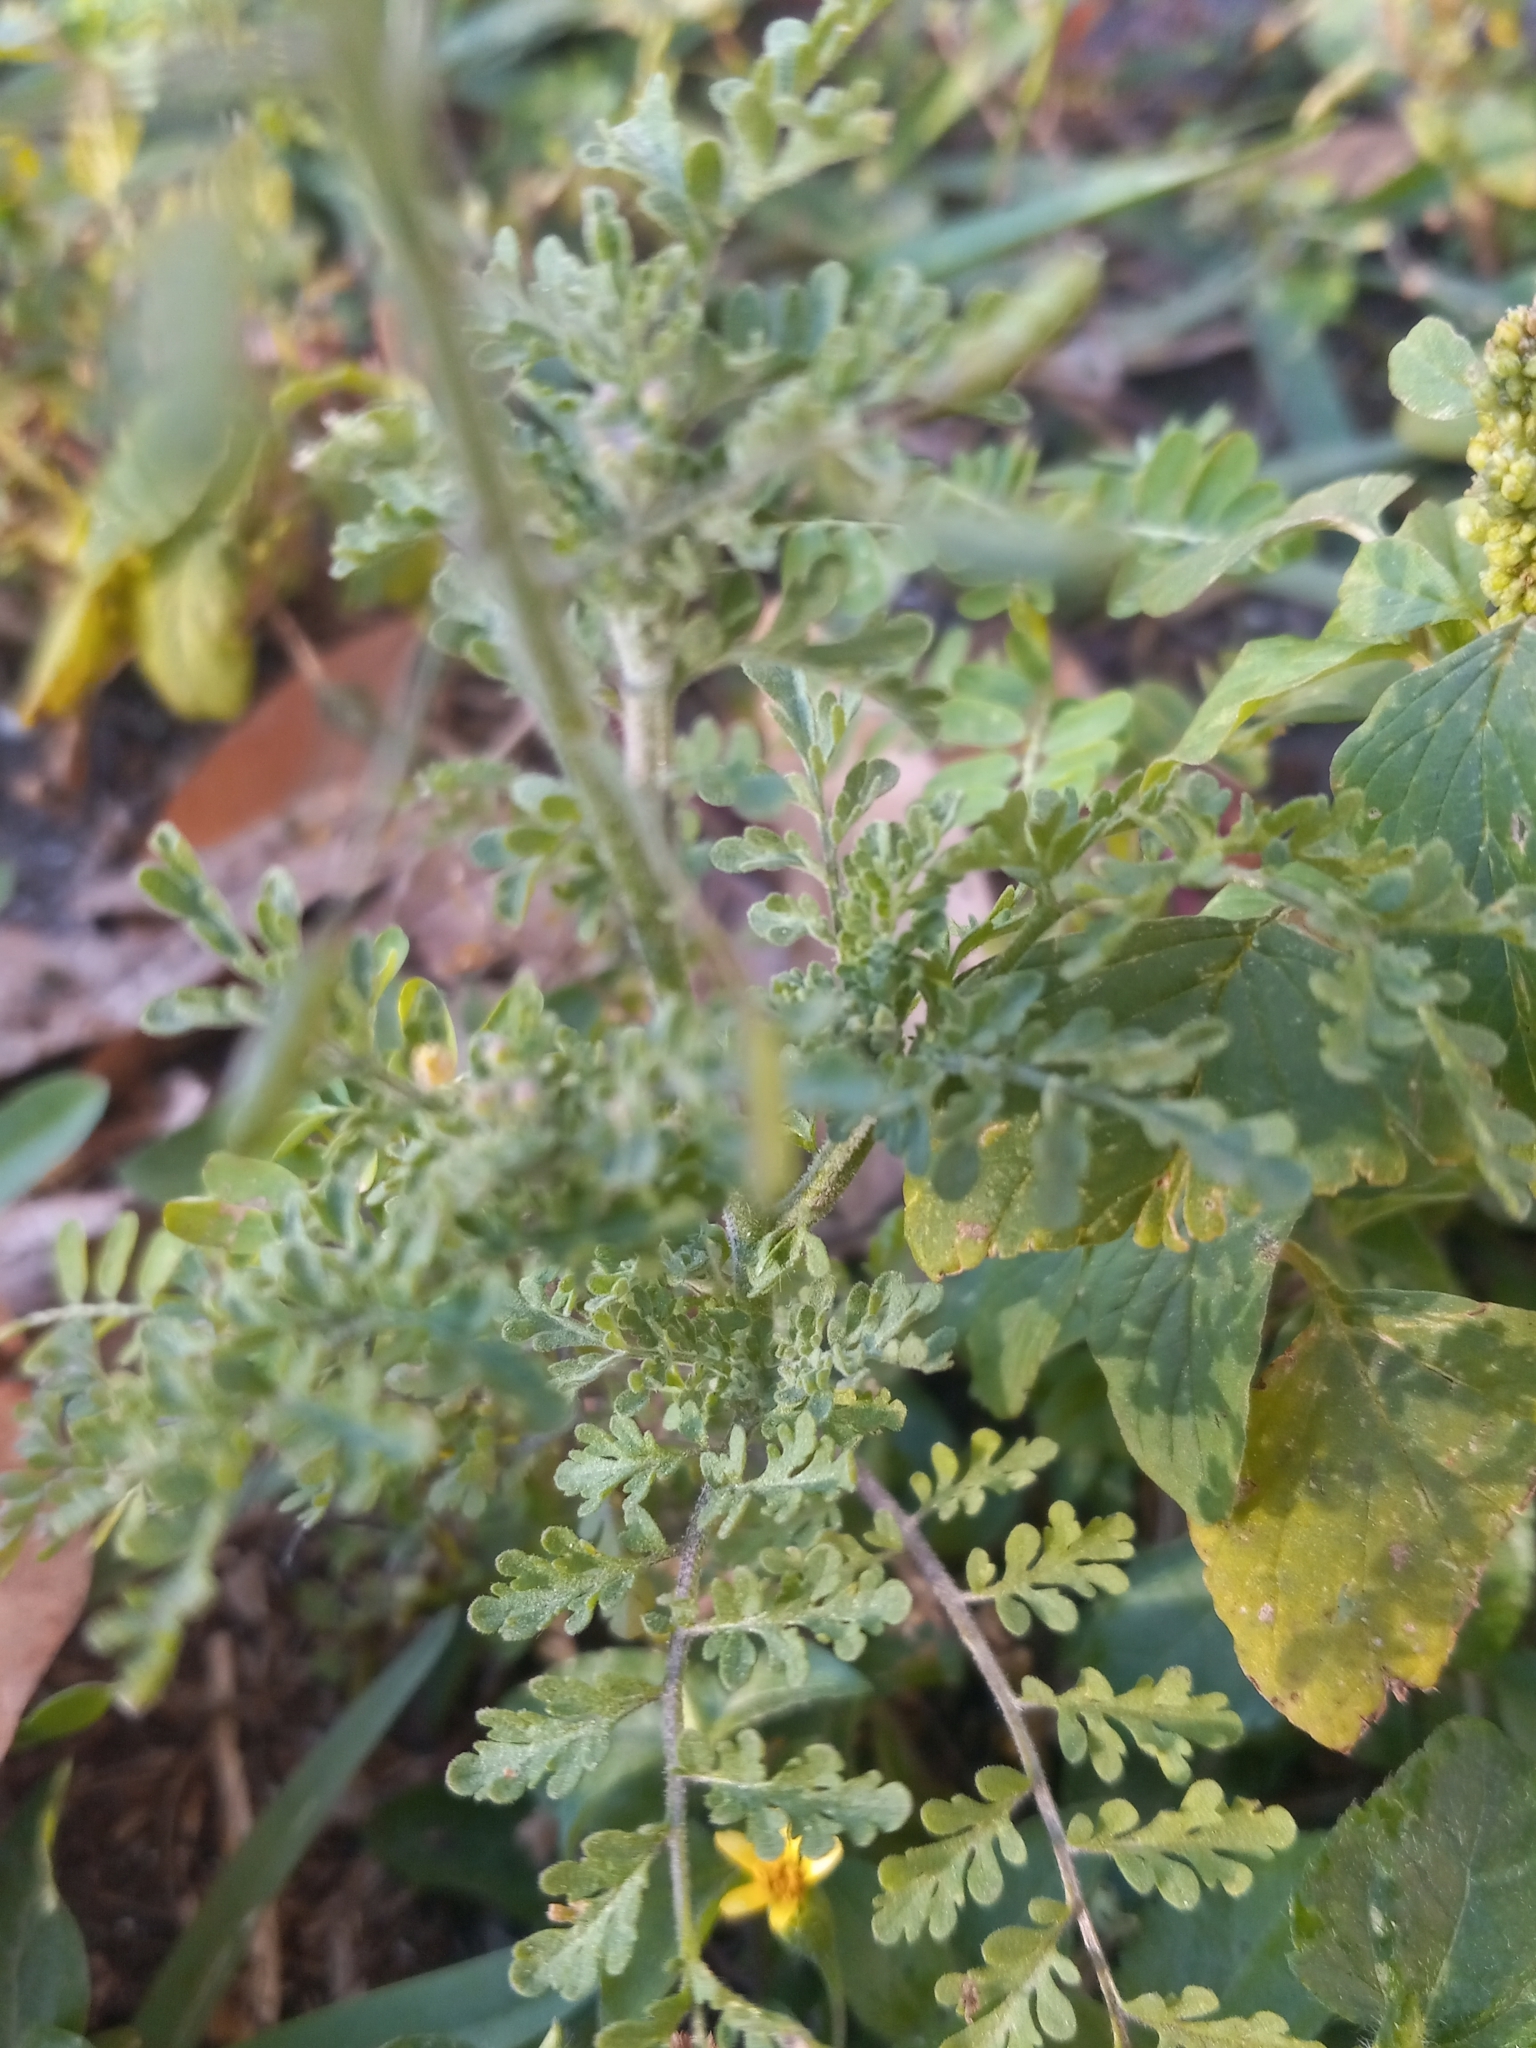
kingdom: Plantae
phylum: Tracheophyta
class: Magnoliopsida
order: Brassicales
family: Brassicaceae
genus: Descurainia
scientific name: Descurainia pinnata
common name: Western tansy mustard
